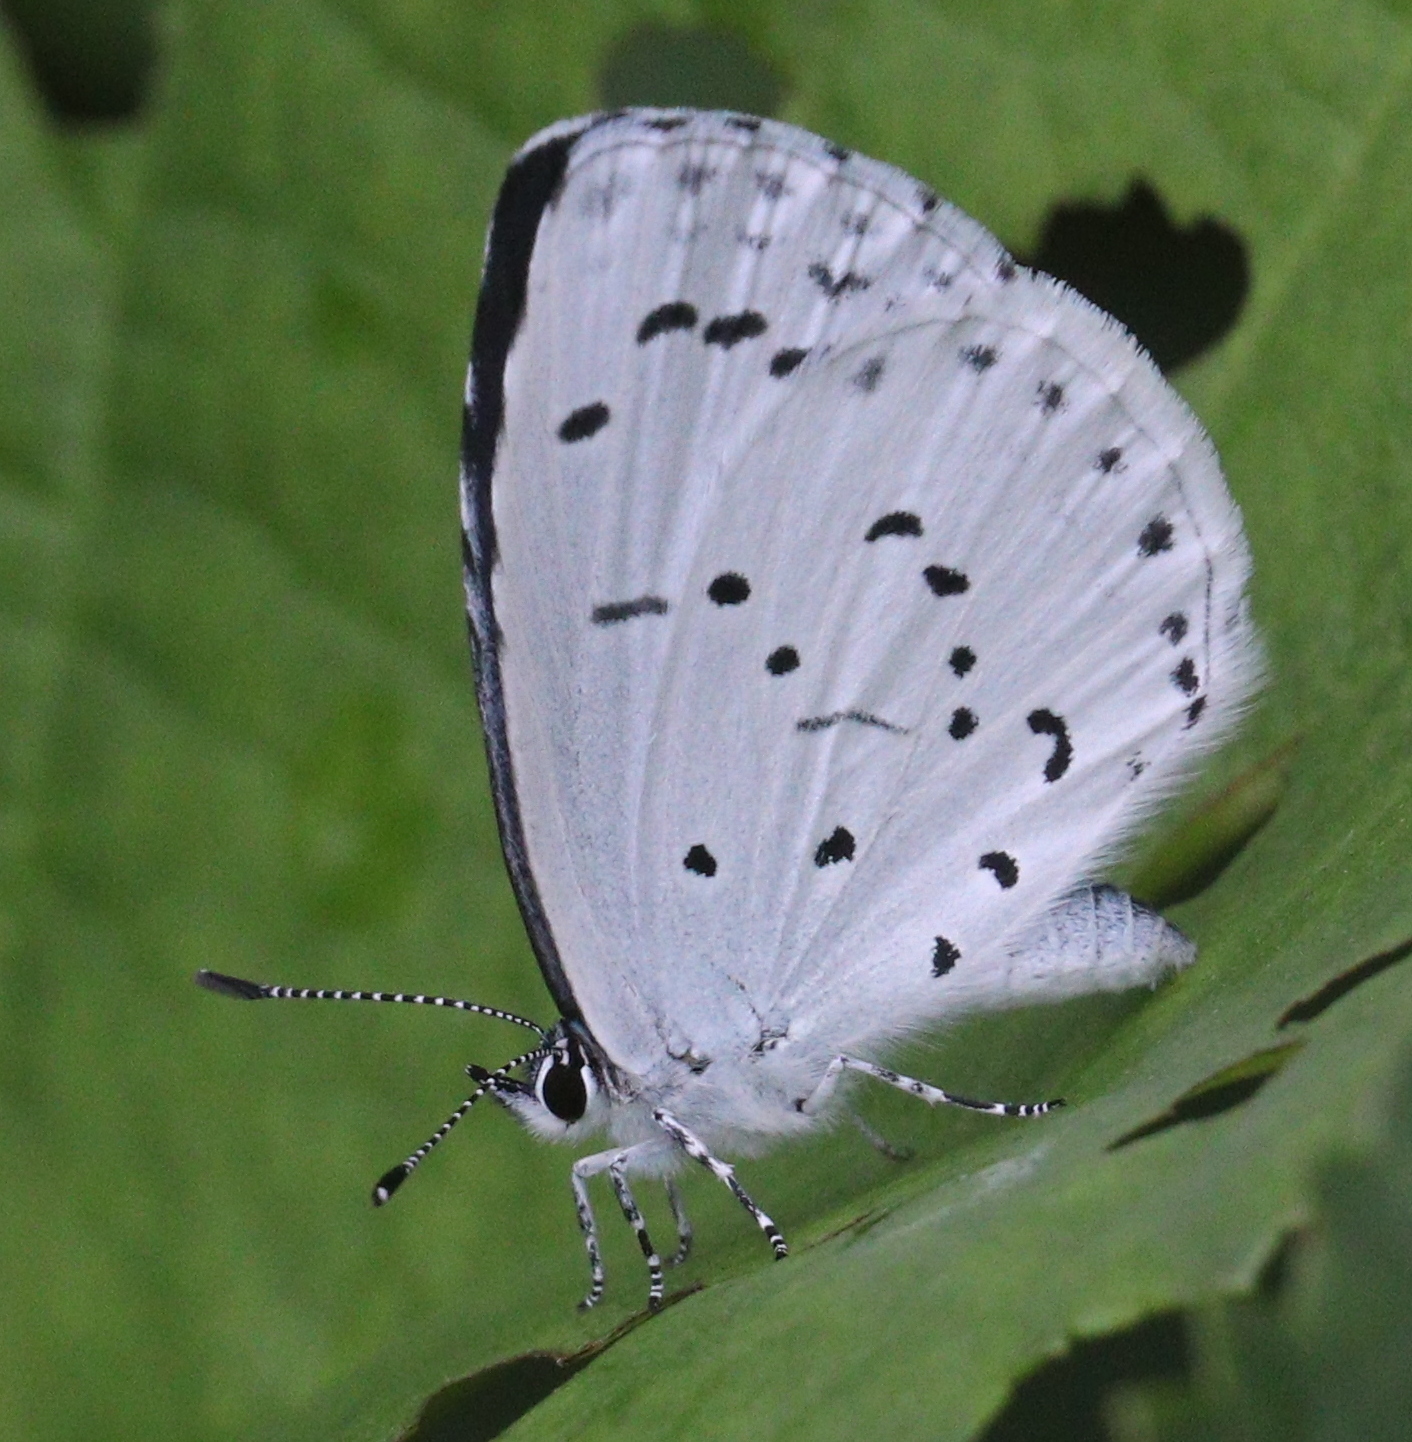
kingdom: Animalia
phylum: Arthropoda
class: Insecta
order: Lepidoptera
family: Lycaenidae
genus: Celastrina
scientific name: Celastrina argiolus
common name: Holly blue
